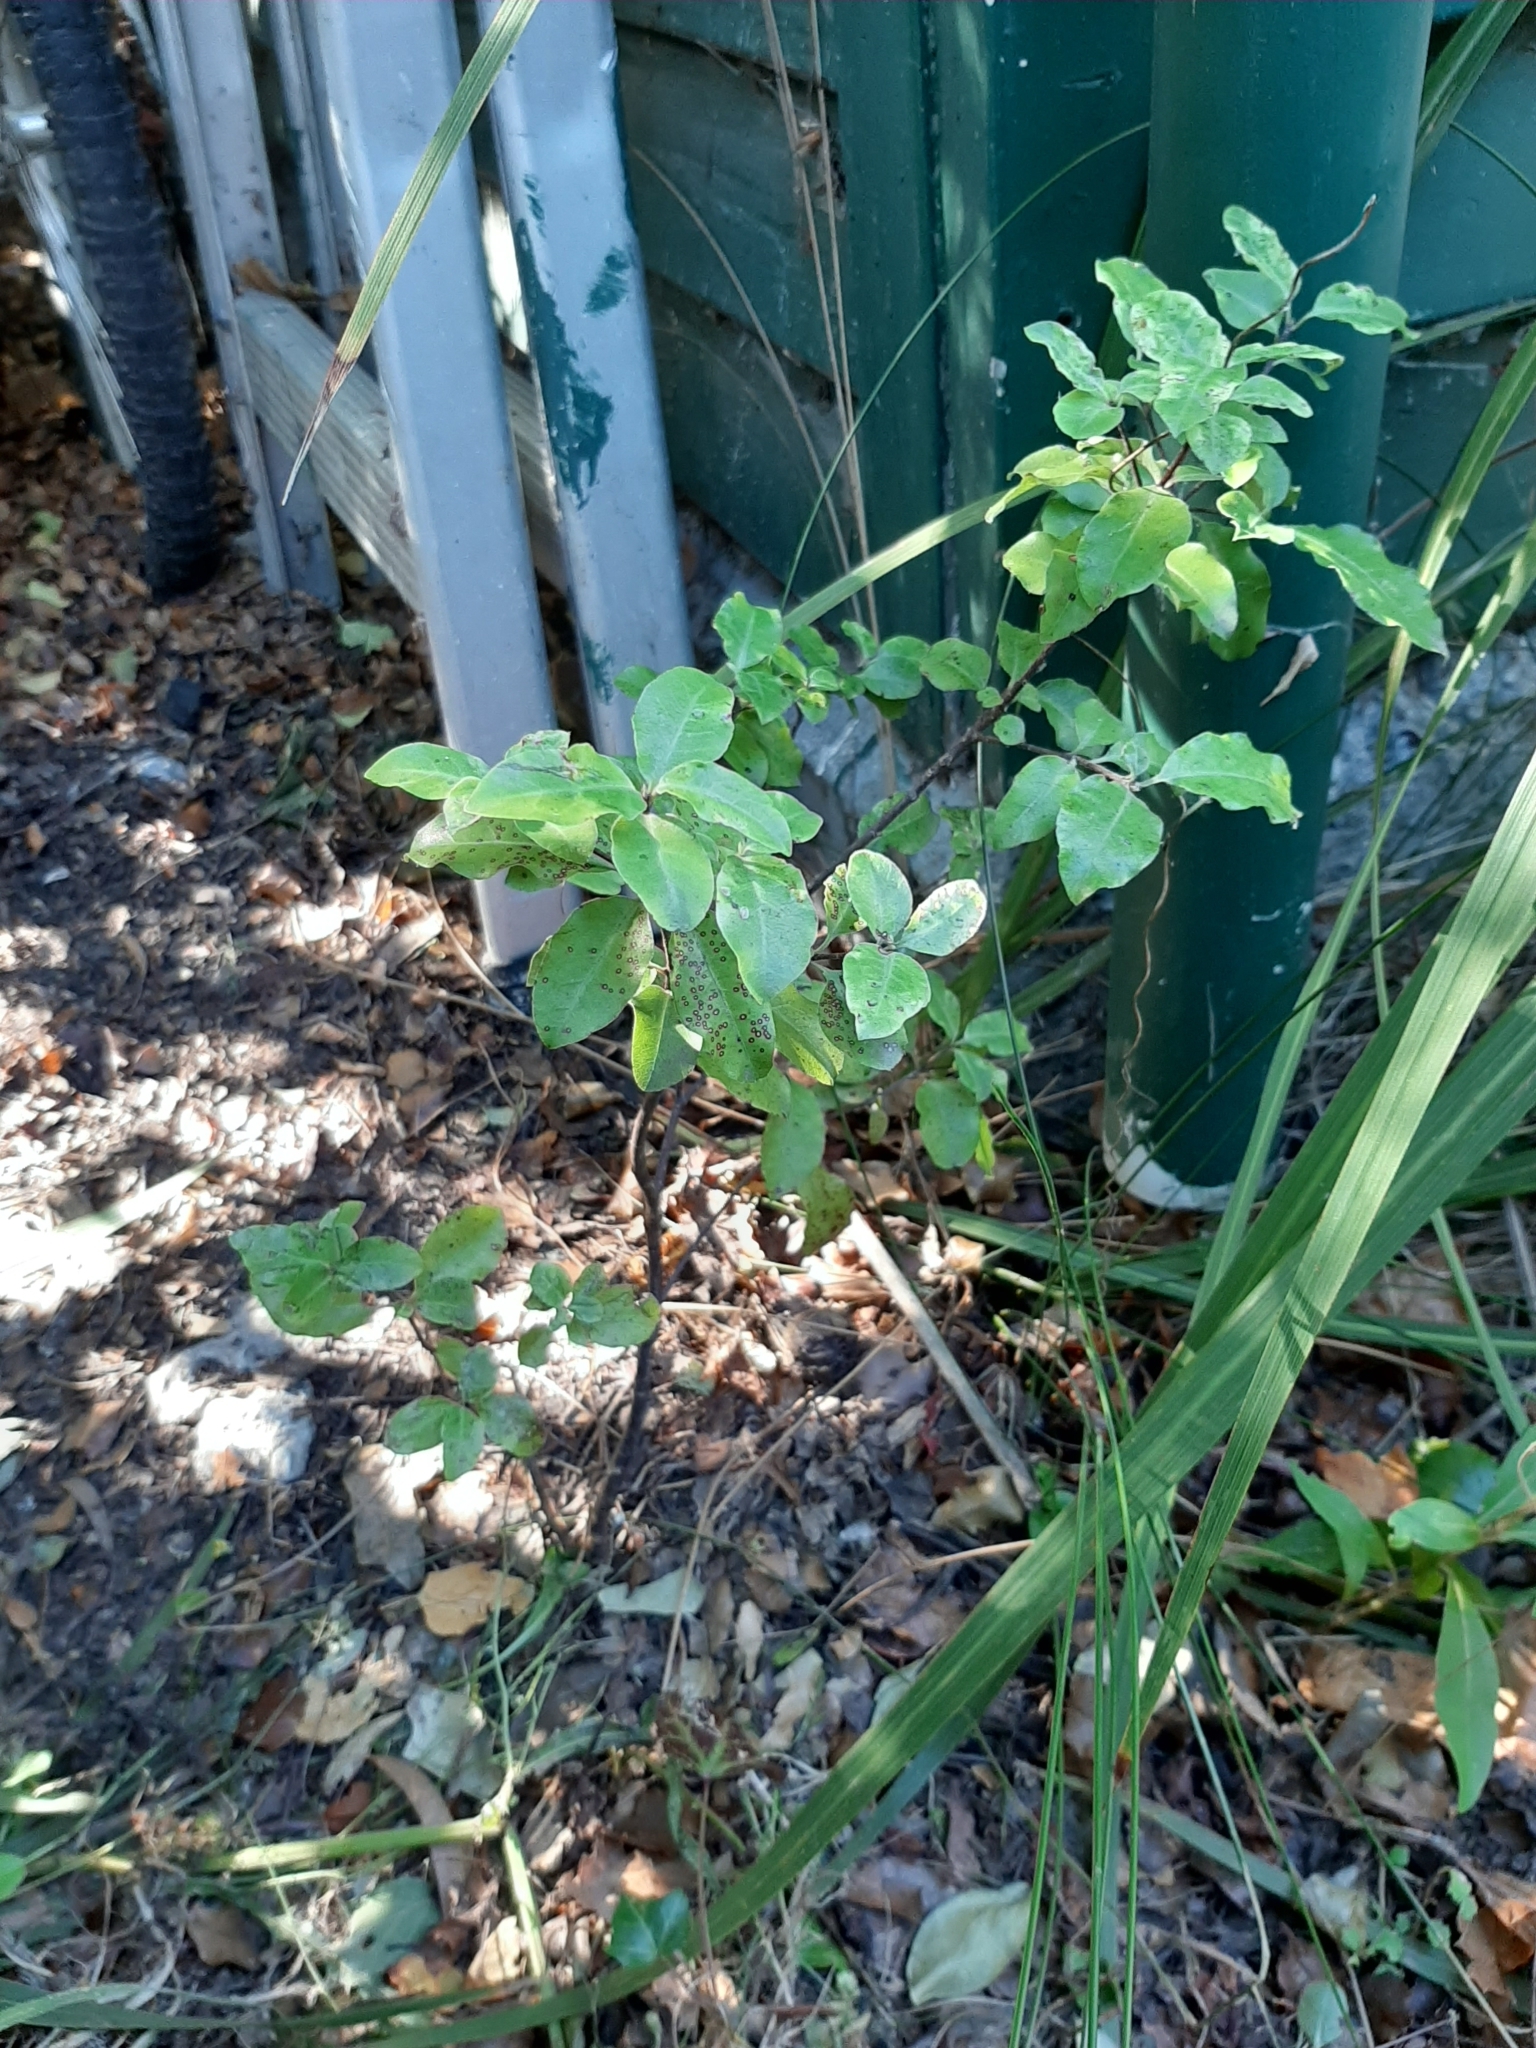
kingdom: Plantae
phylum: Tracheophyta
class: Magnoliopsida
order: Apiales
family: Pittosporaceae
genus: Pittosporum
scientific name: Pittosporum tenuifolium
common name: Kohuhu
